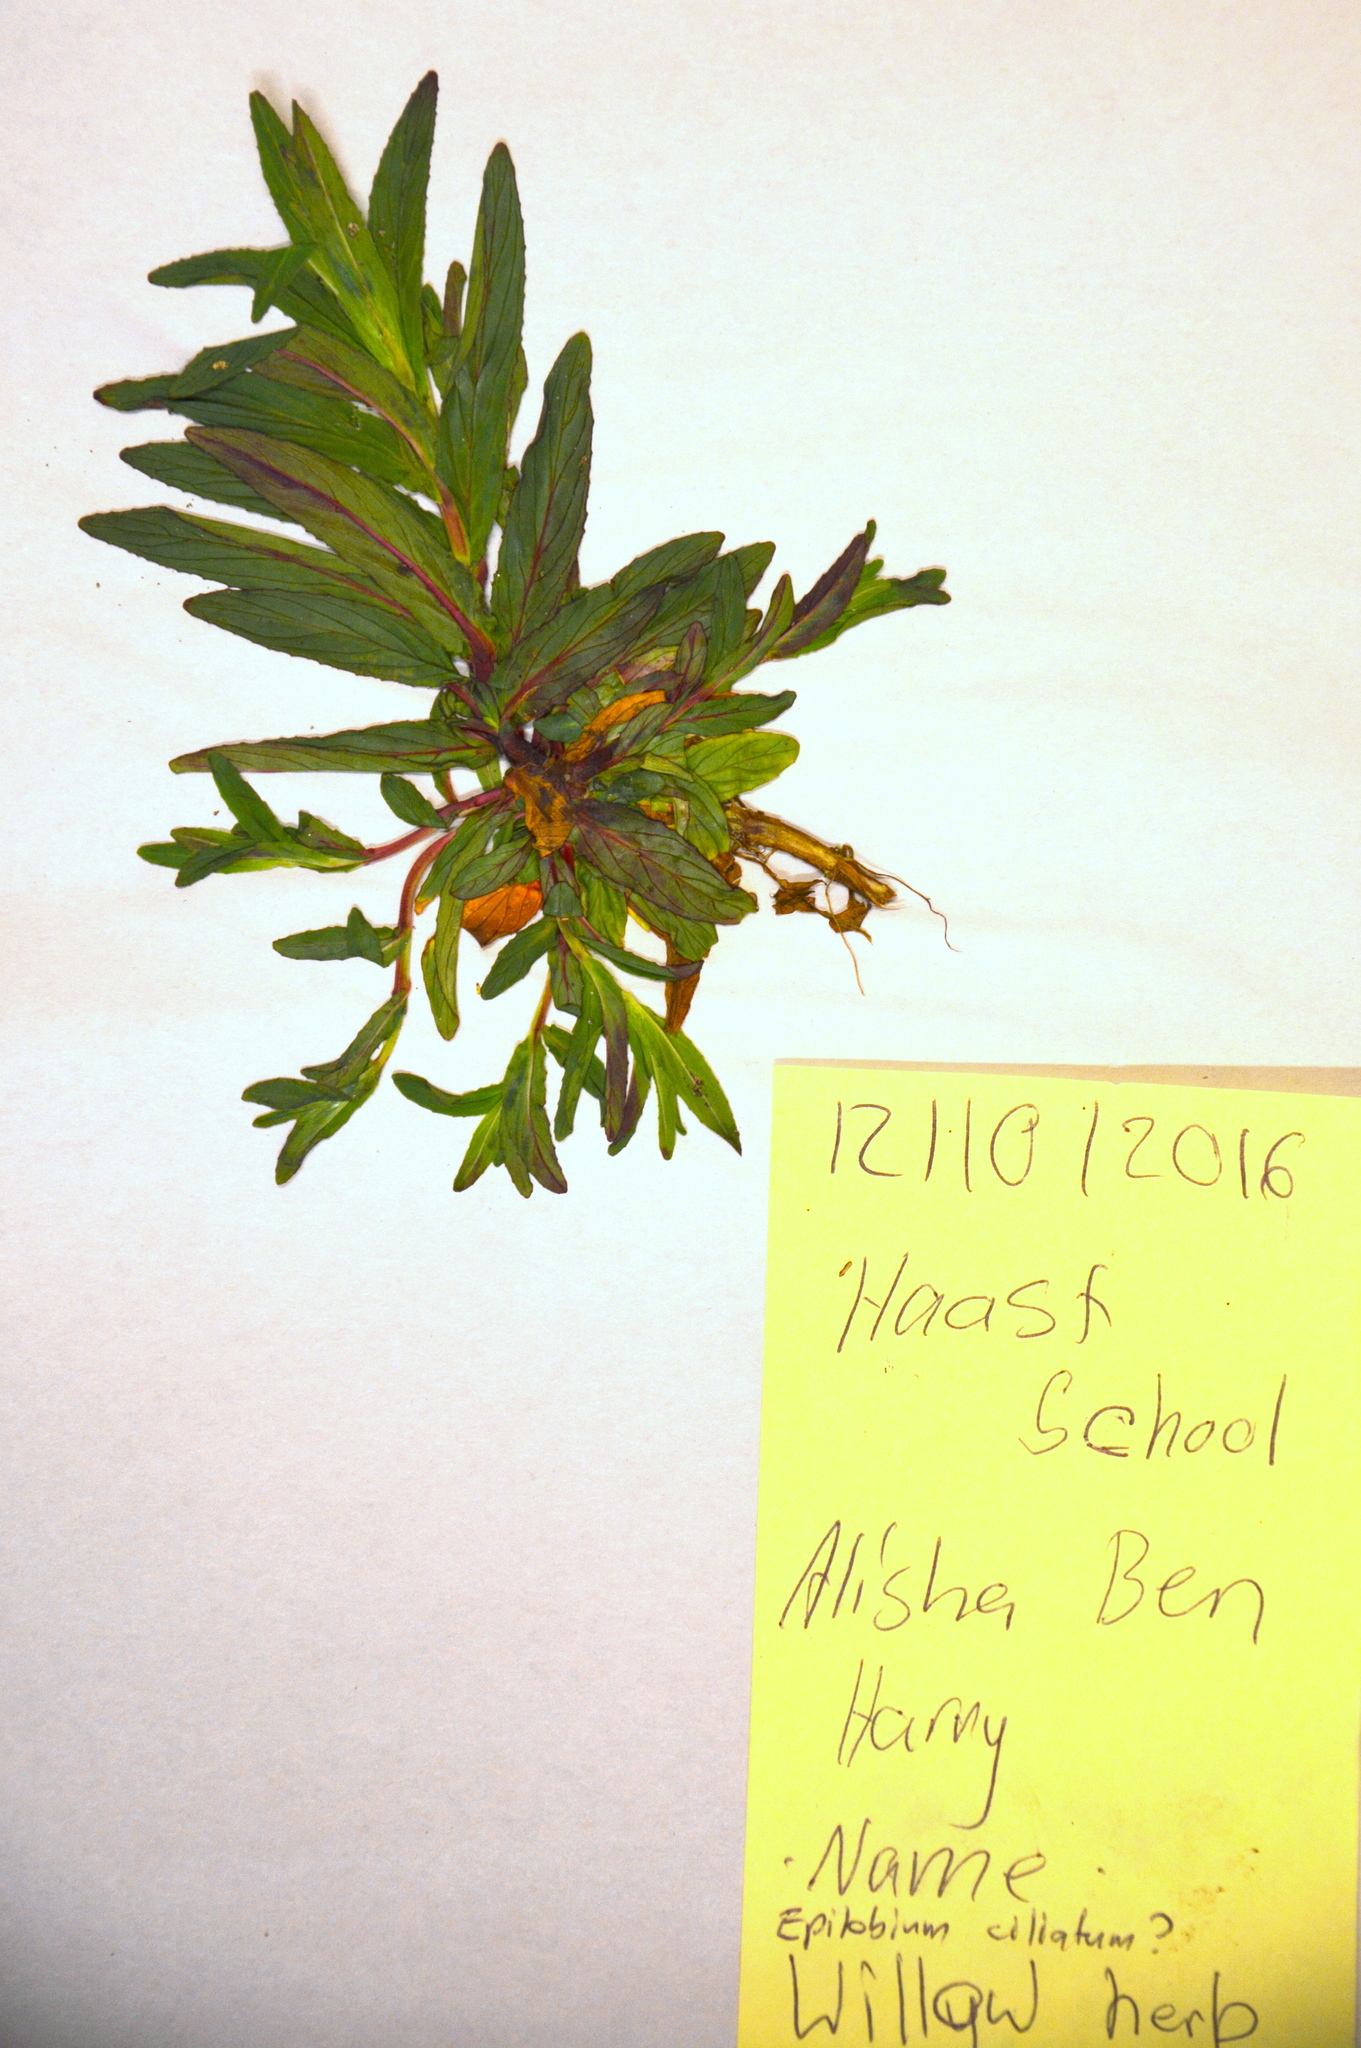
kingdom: Plantae
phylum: Tracheophyta
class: Magnoliopsida
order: Myrtales
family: Onagraceae
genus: Epilobium
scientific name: Epilobium ciliatum
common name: American willowherb
